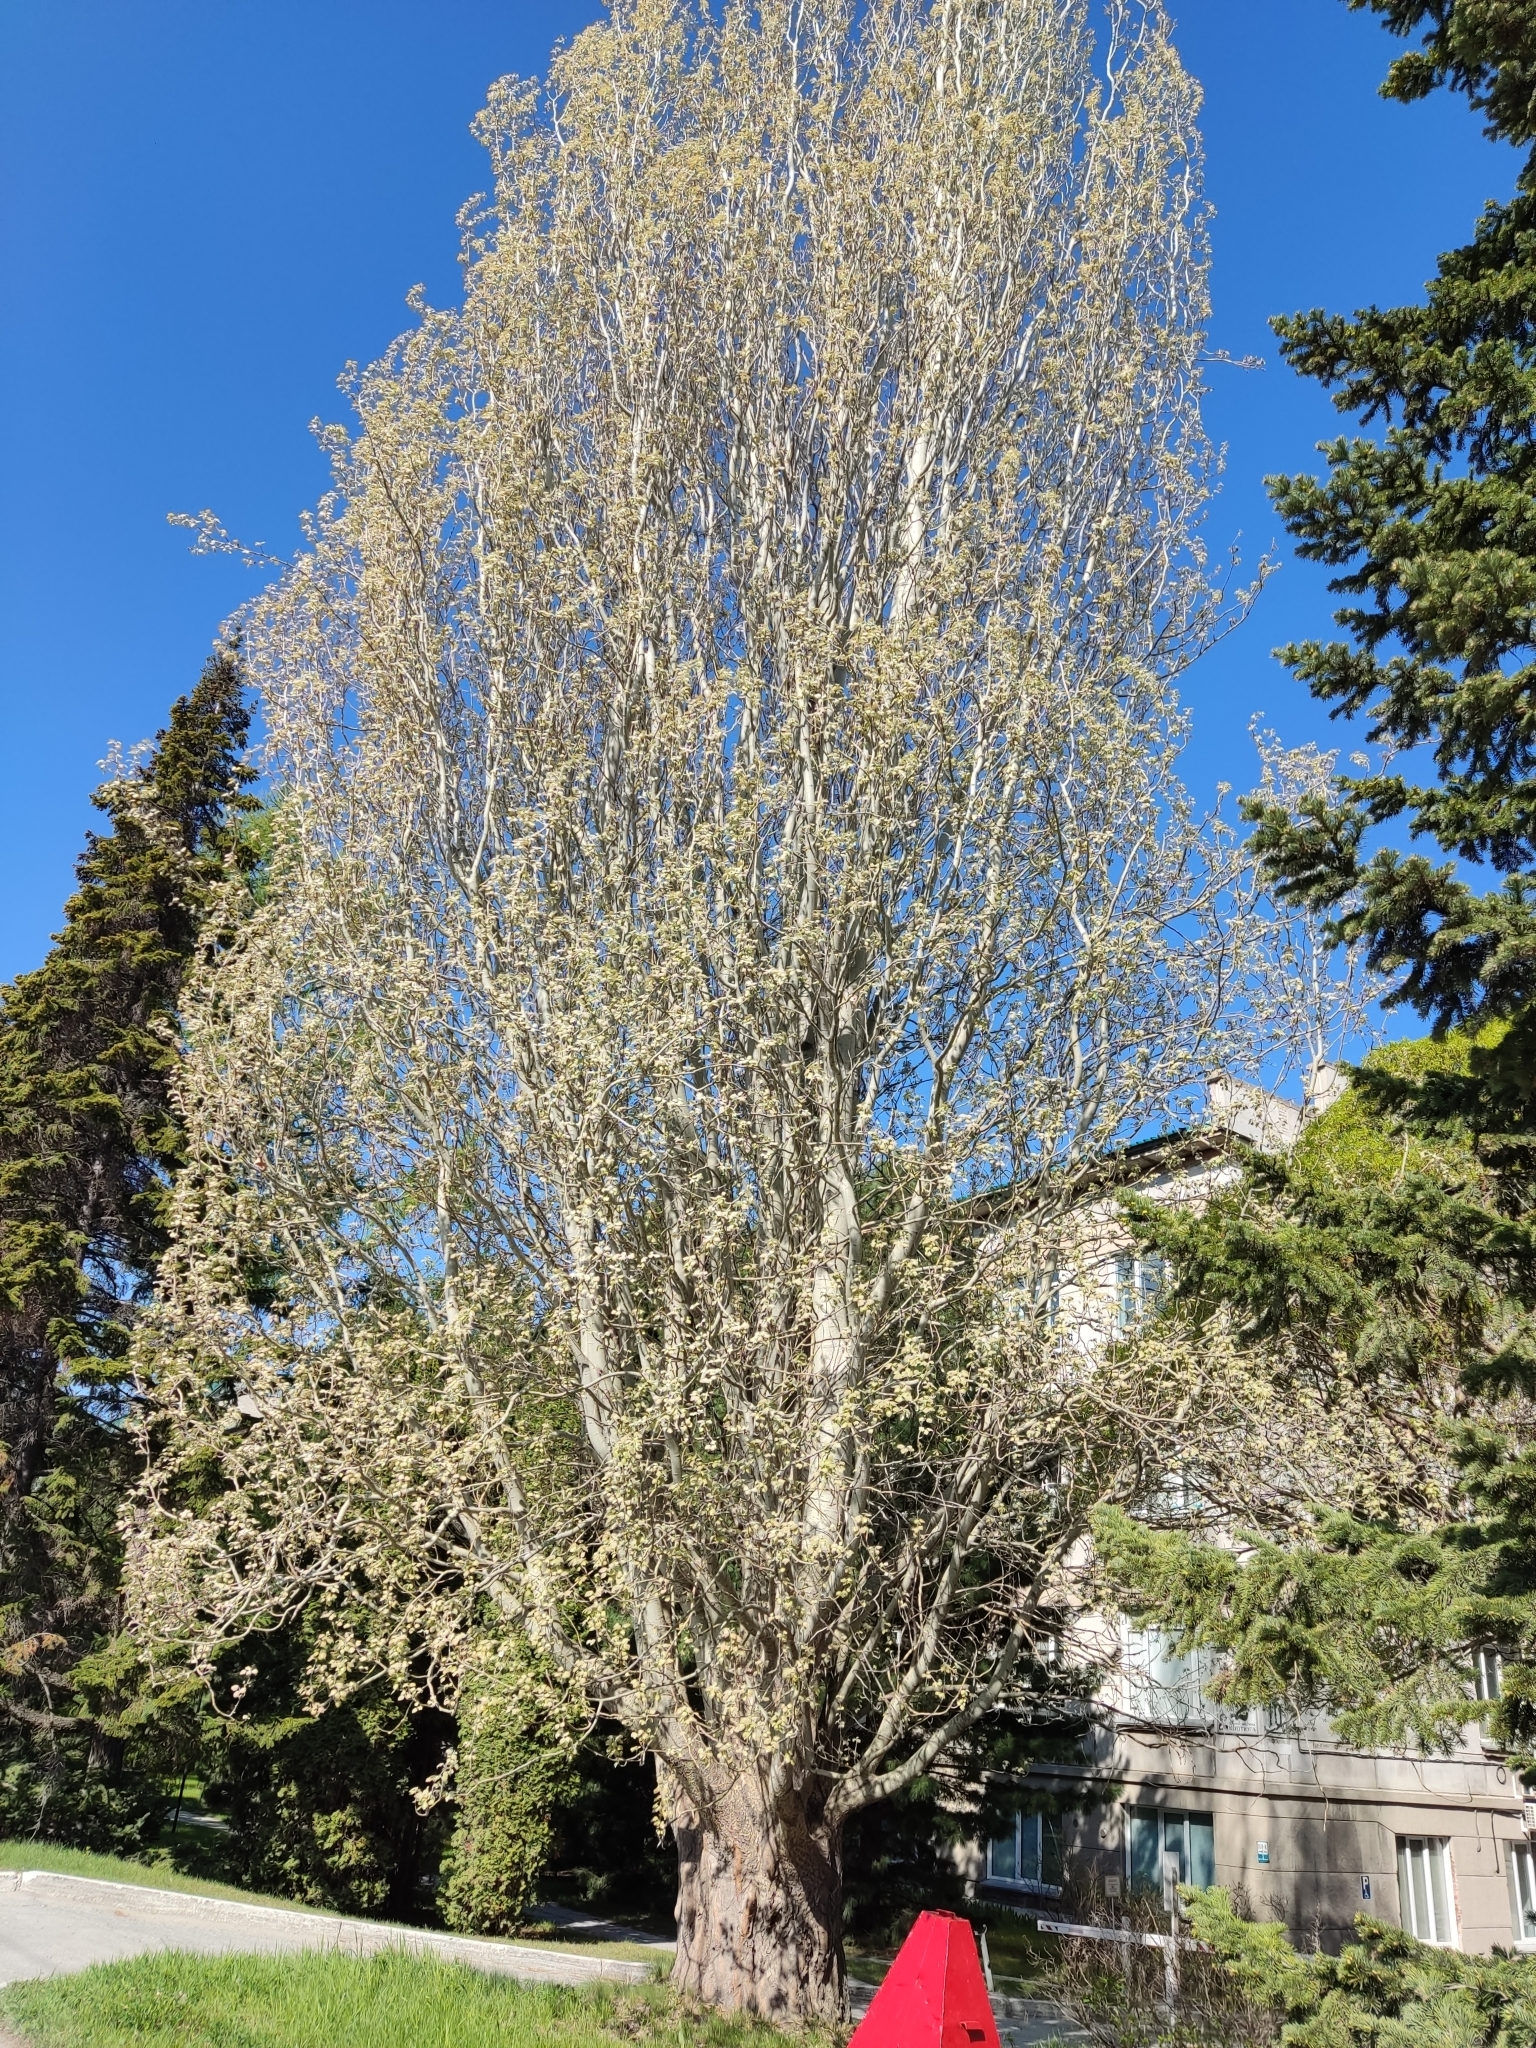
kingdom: Plantae
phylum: Tracheophyta
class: Magnoliopsida
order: Malpighiales
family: Salicaceae
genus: Populus
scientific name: Populus alba
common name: White poplar
